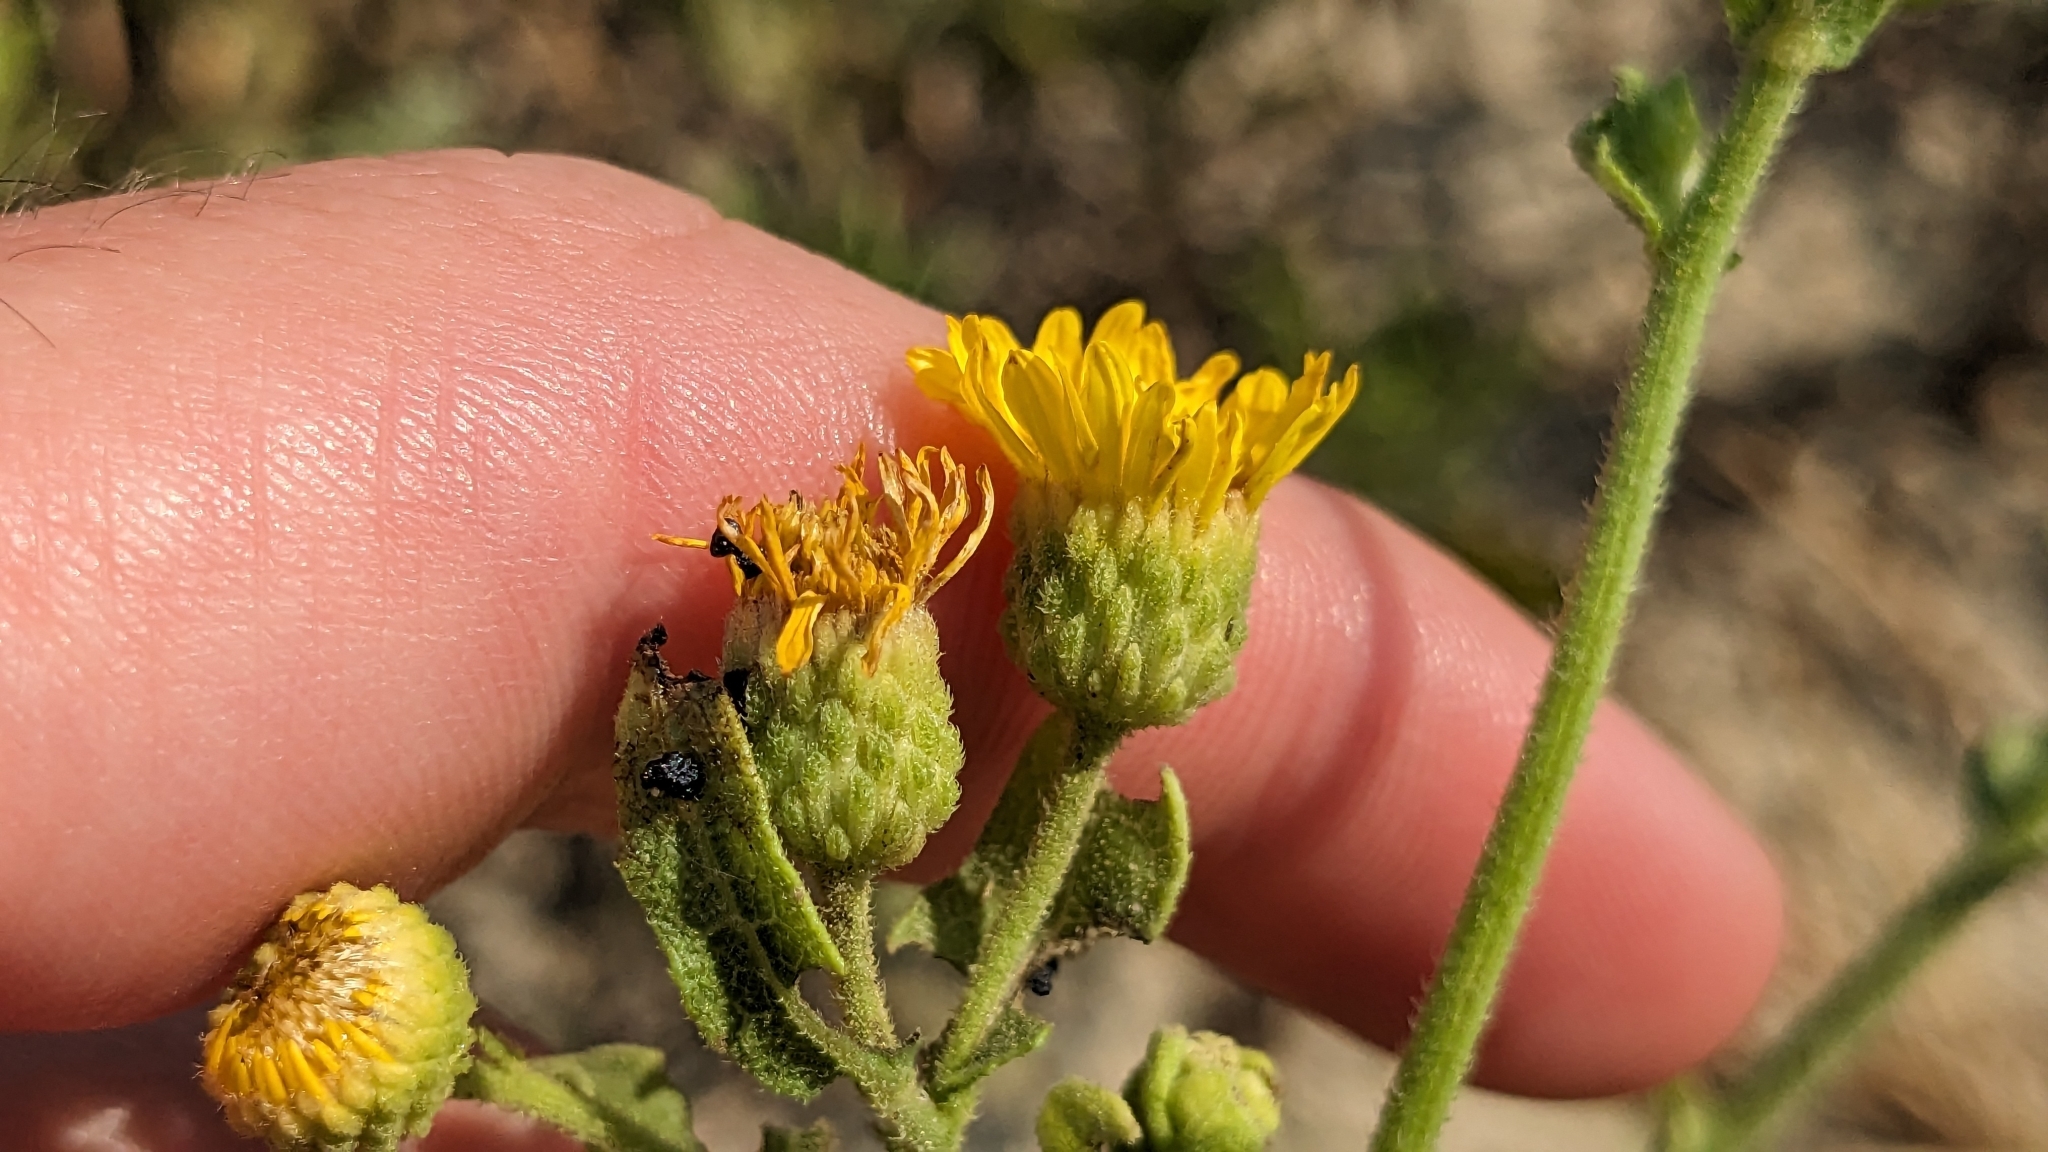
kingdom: Plantae
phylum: Tracheophyta
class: Magnoliopsida
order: Asterales
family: Asteraceae
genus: Heterotheca
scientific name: Heterotheca subaxillaris
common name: Camphorweed
